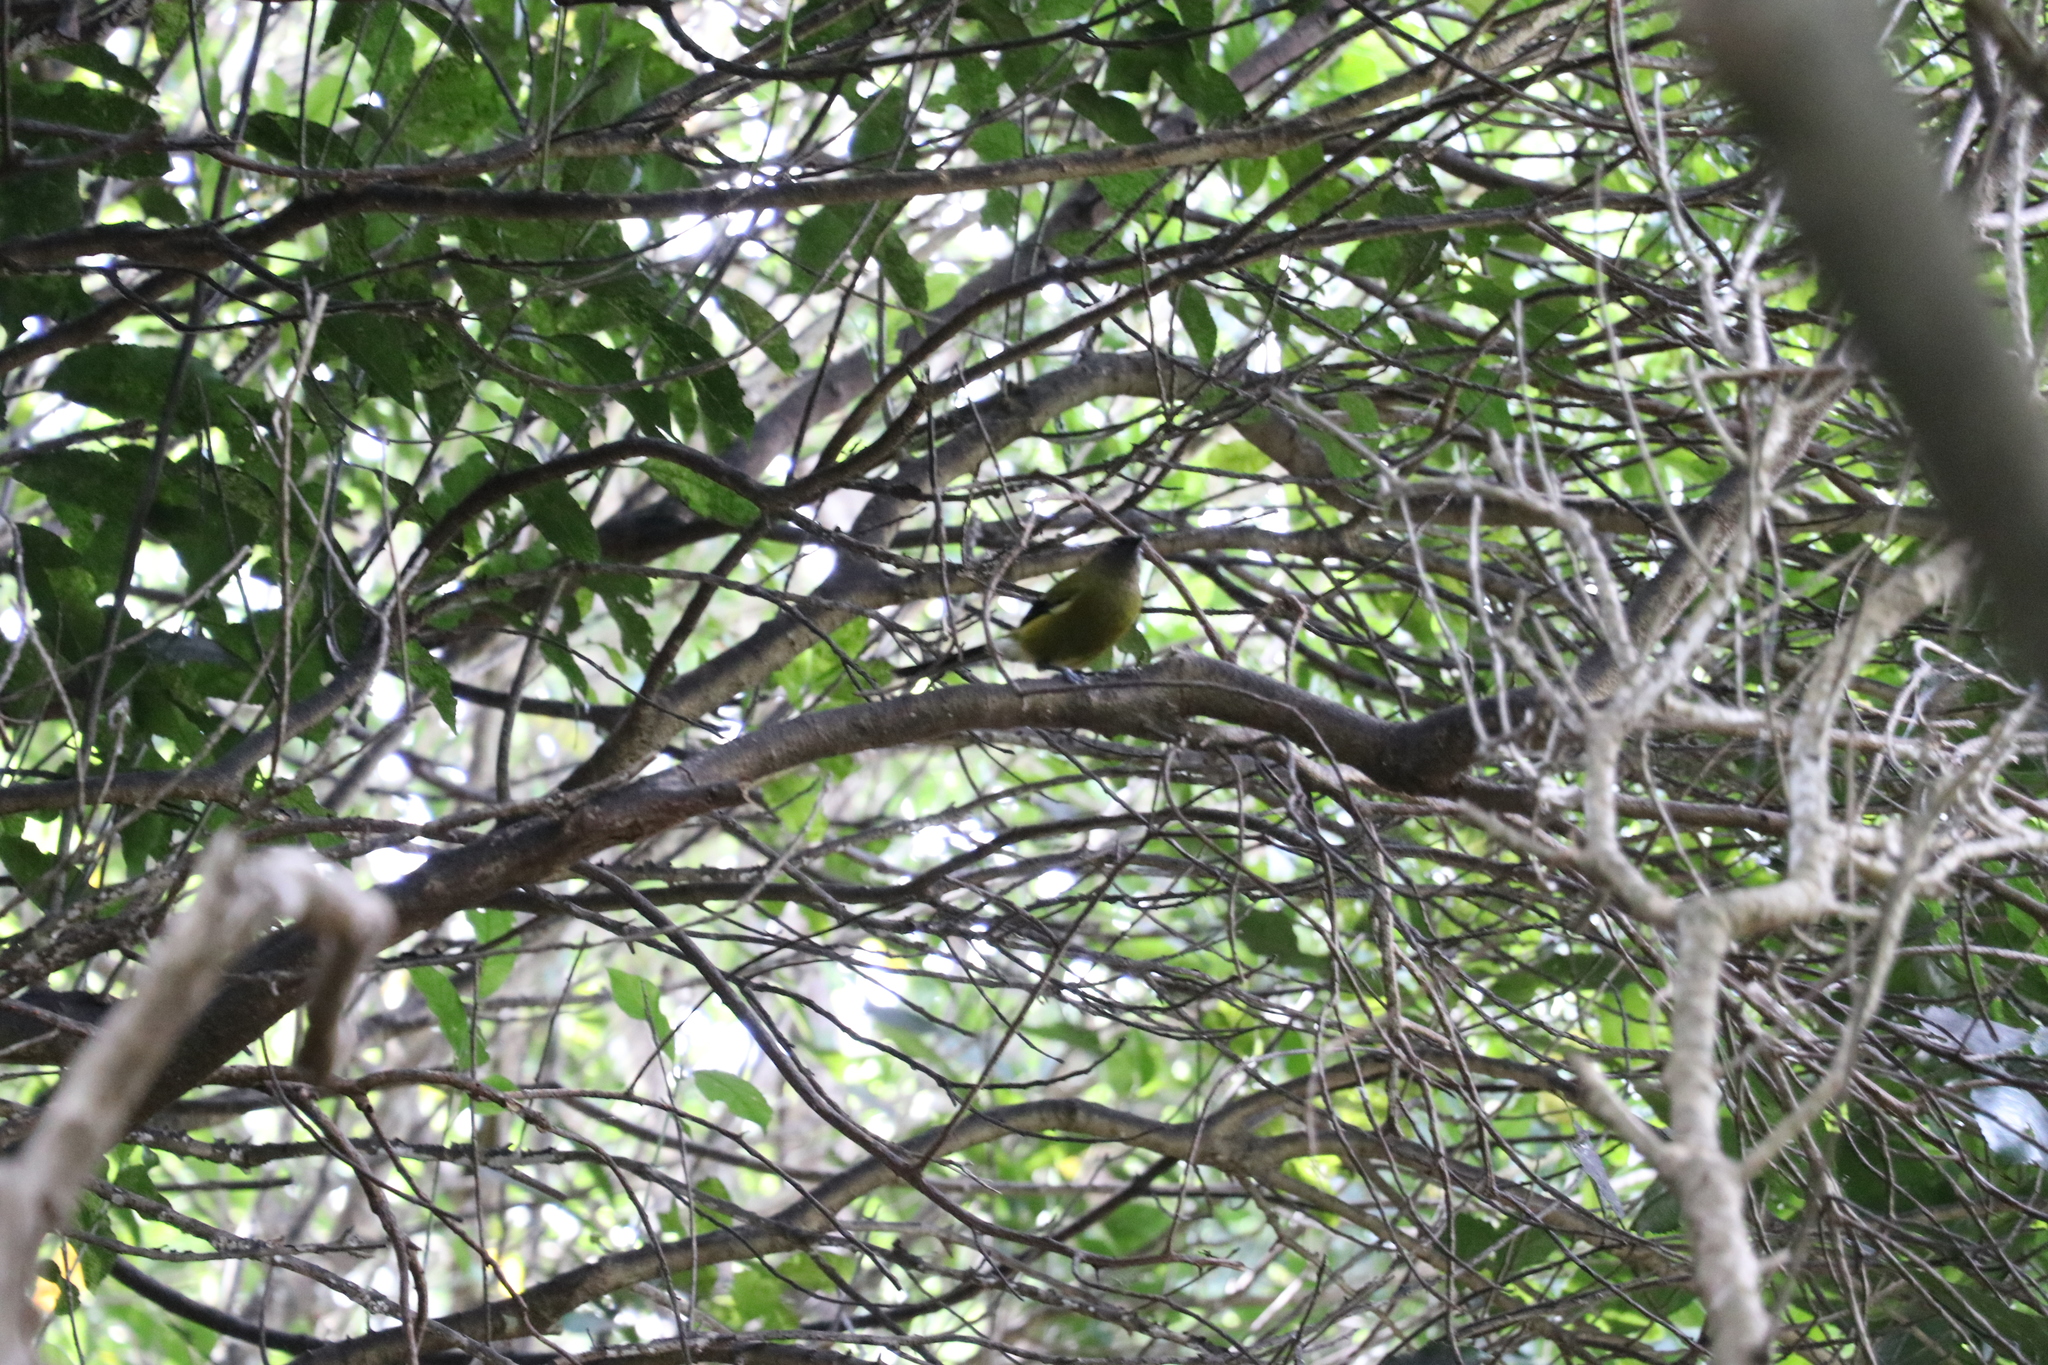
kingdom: Animalia
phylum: Chordata
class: Aves
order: Passeriformes
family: Meliphagidae
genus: Anthornis
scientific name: Anthornis melanura
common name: New zealand bellbird
